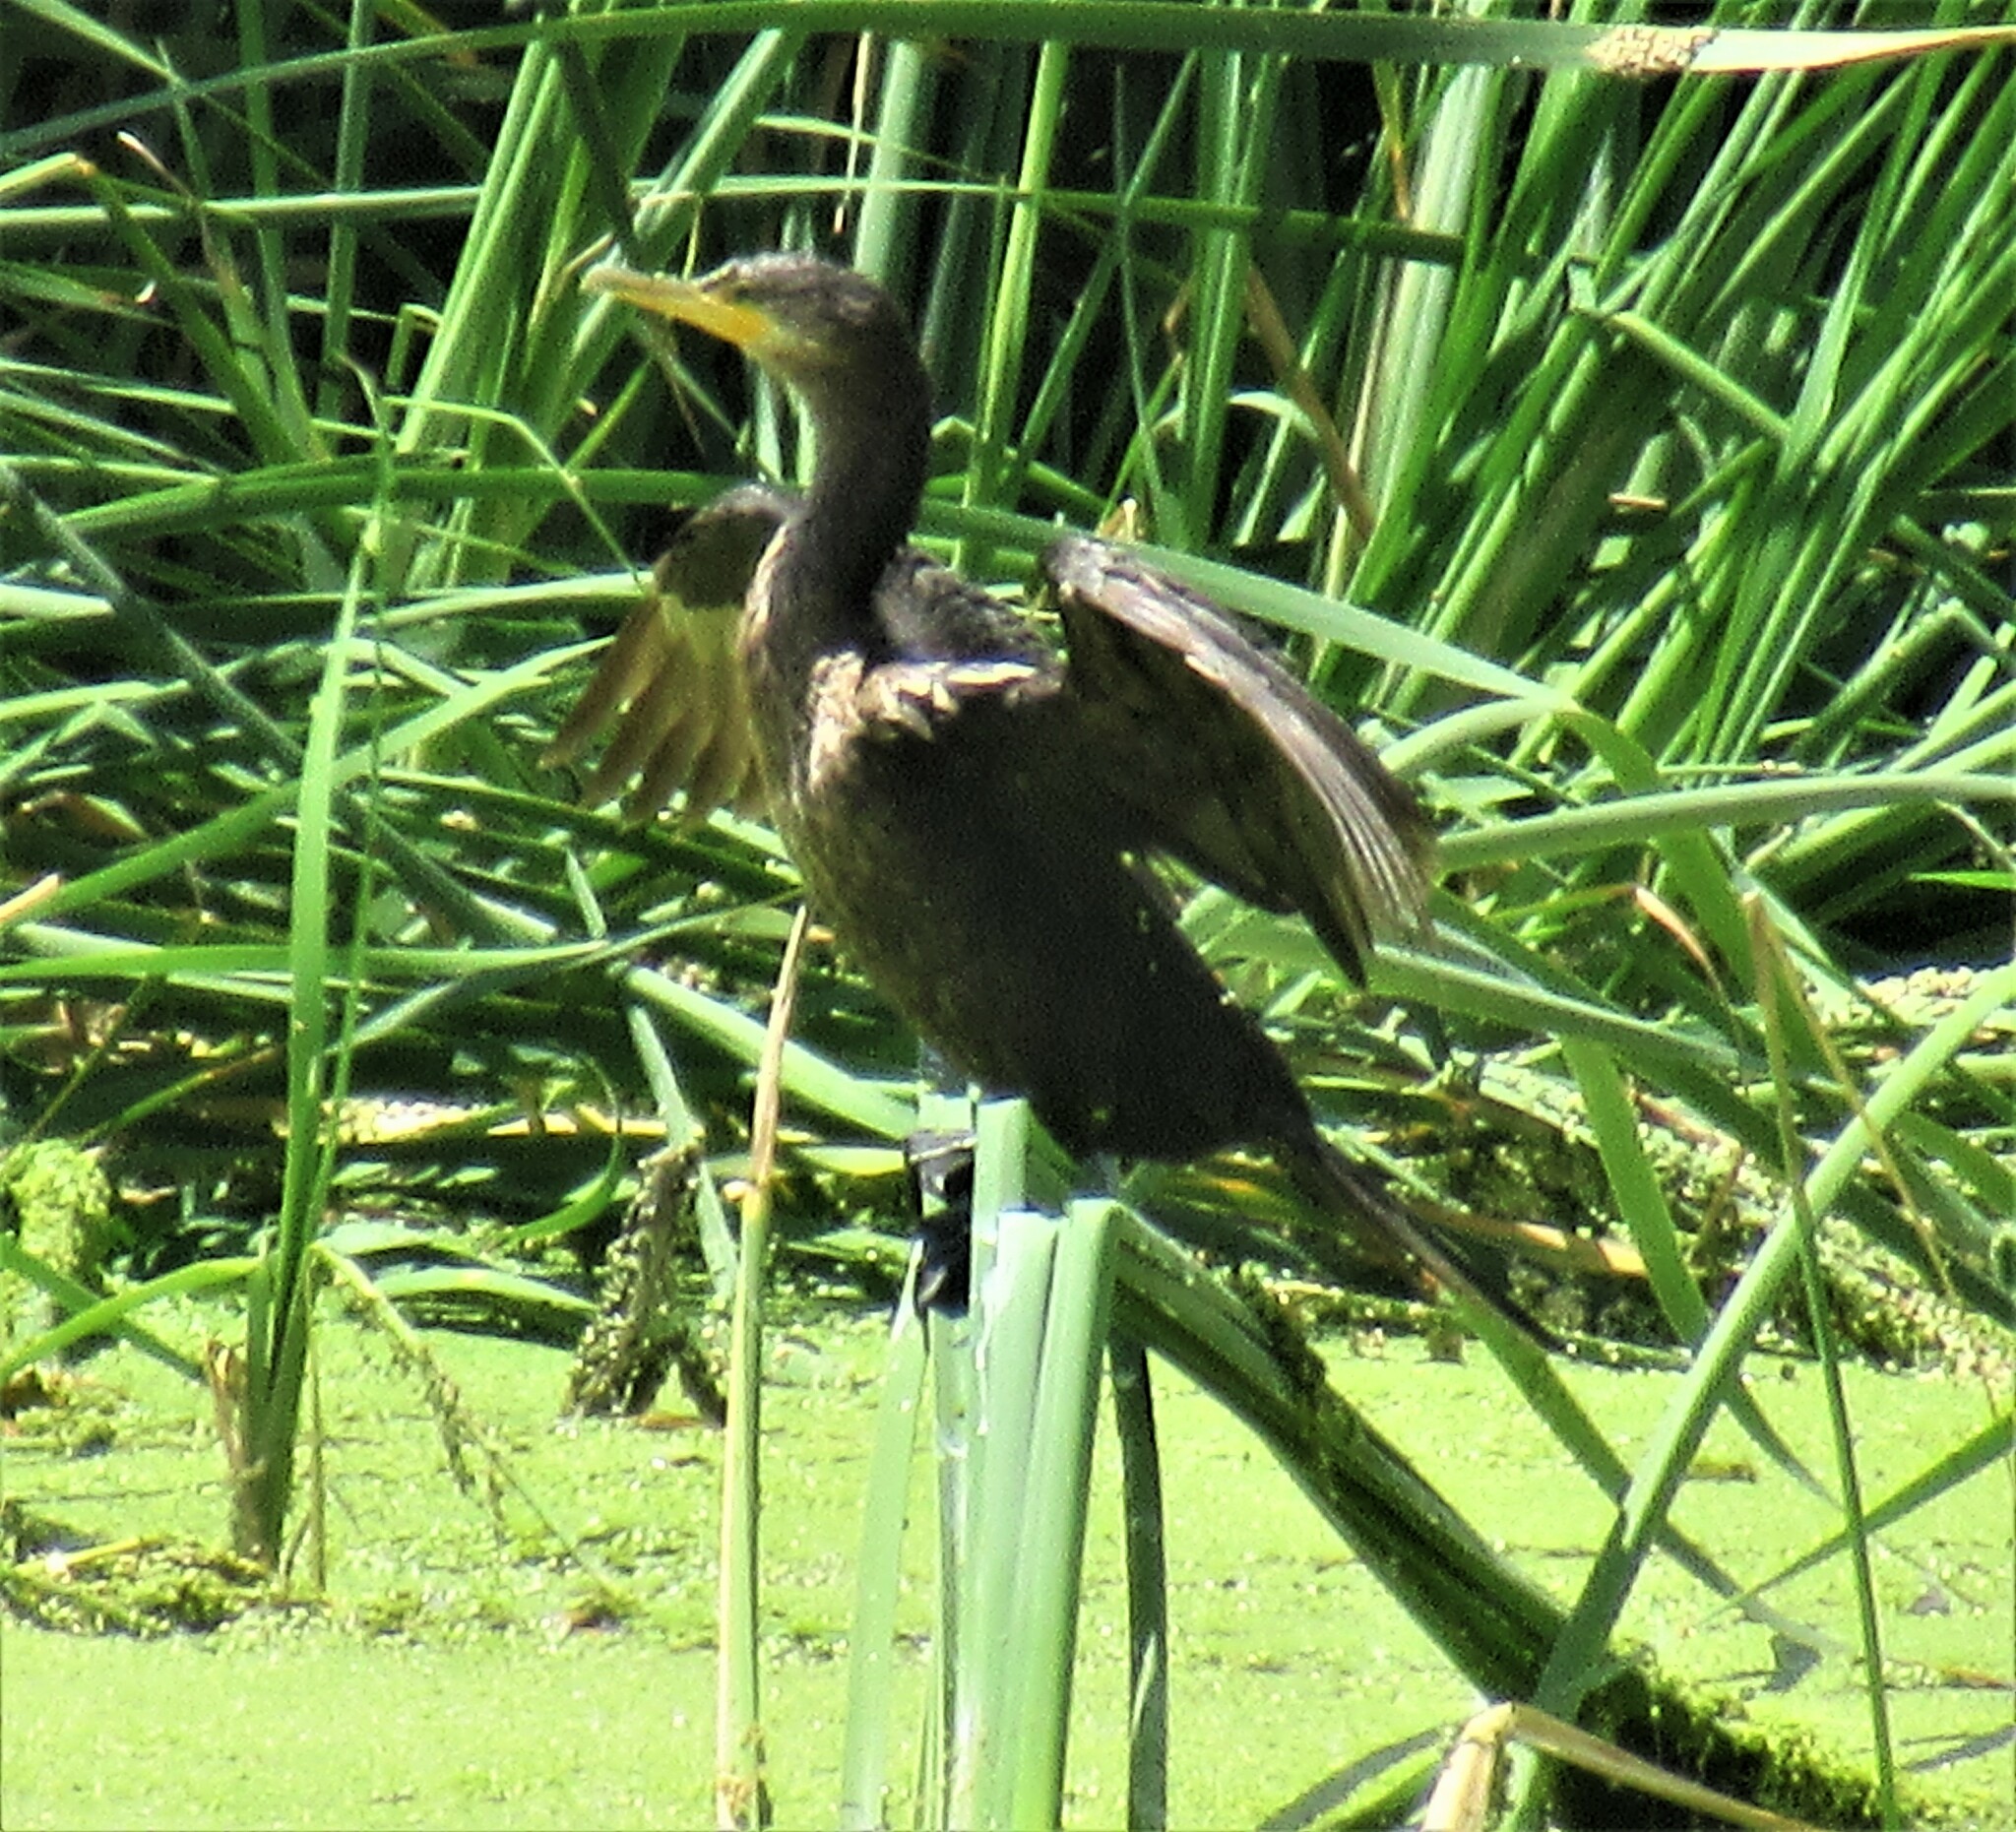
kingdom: Animalia
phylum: Chordata
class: Aves
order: Suliformes
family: Phalacrocoracidae
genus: Phalacrocorax
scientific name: Phalacrocorax brasilianus
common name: Neotropic cormorant
